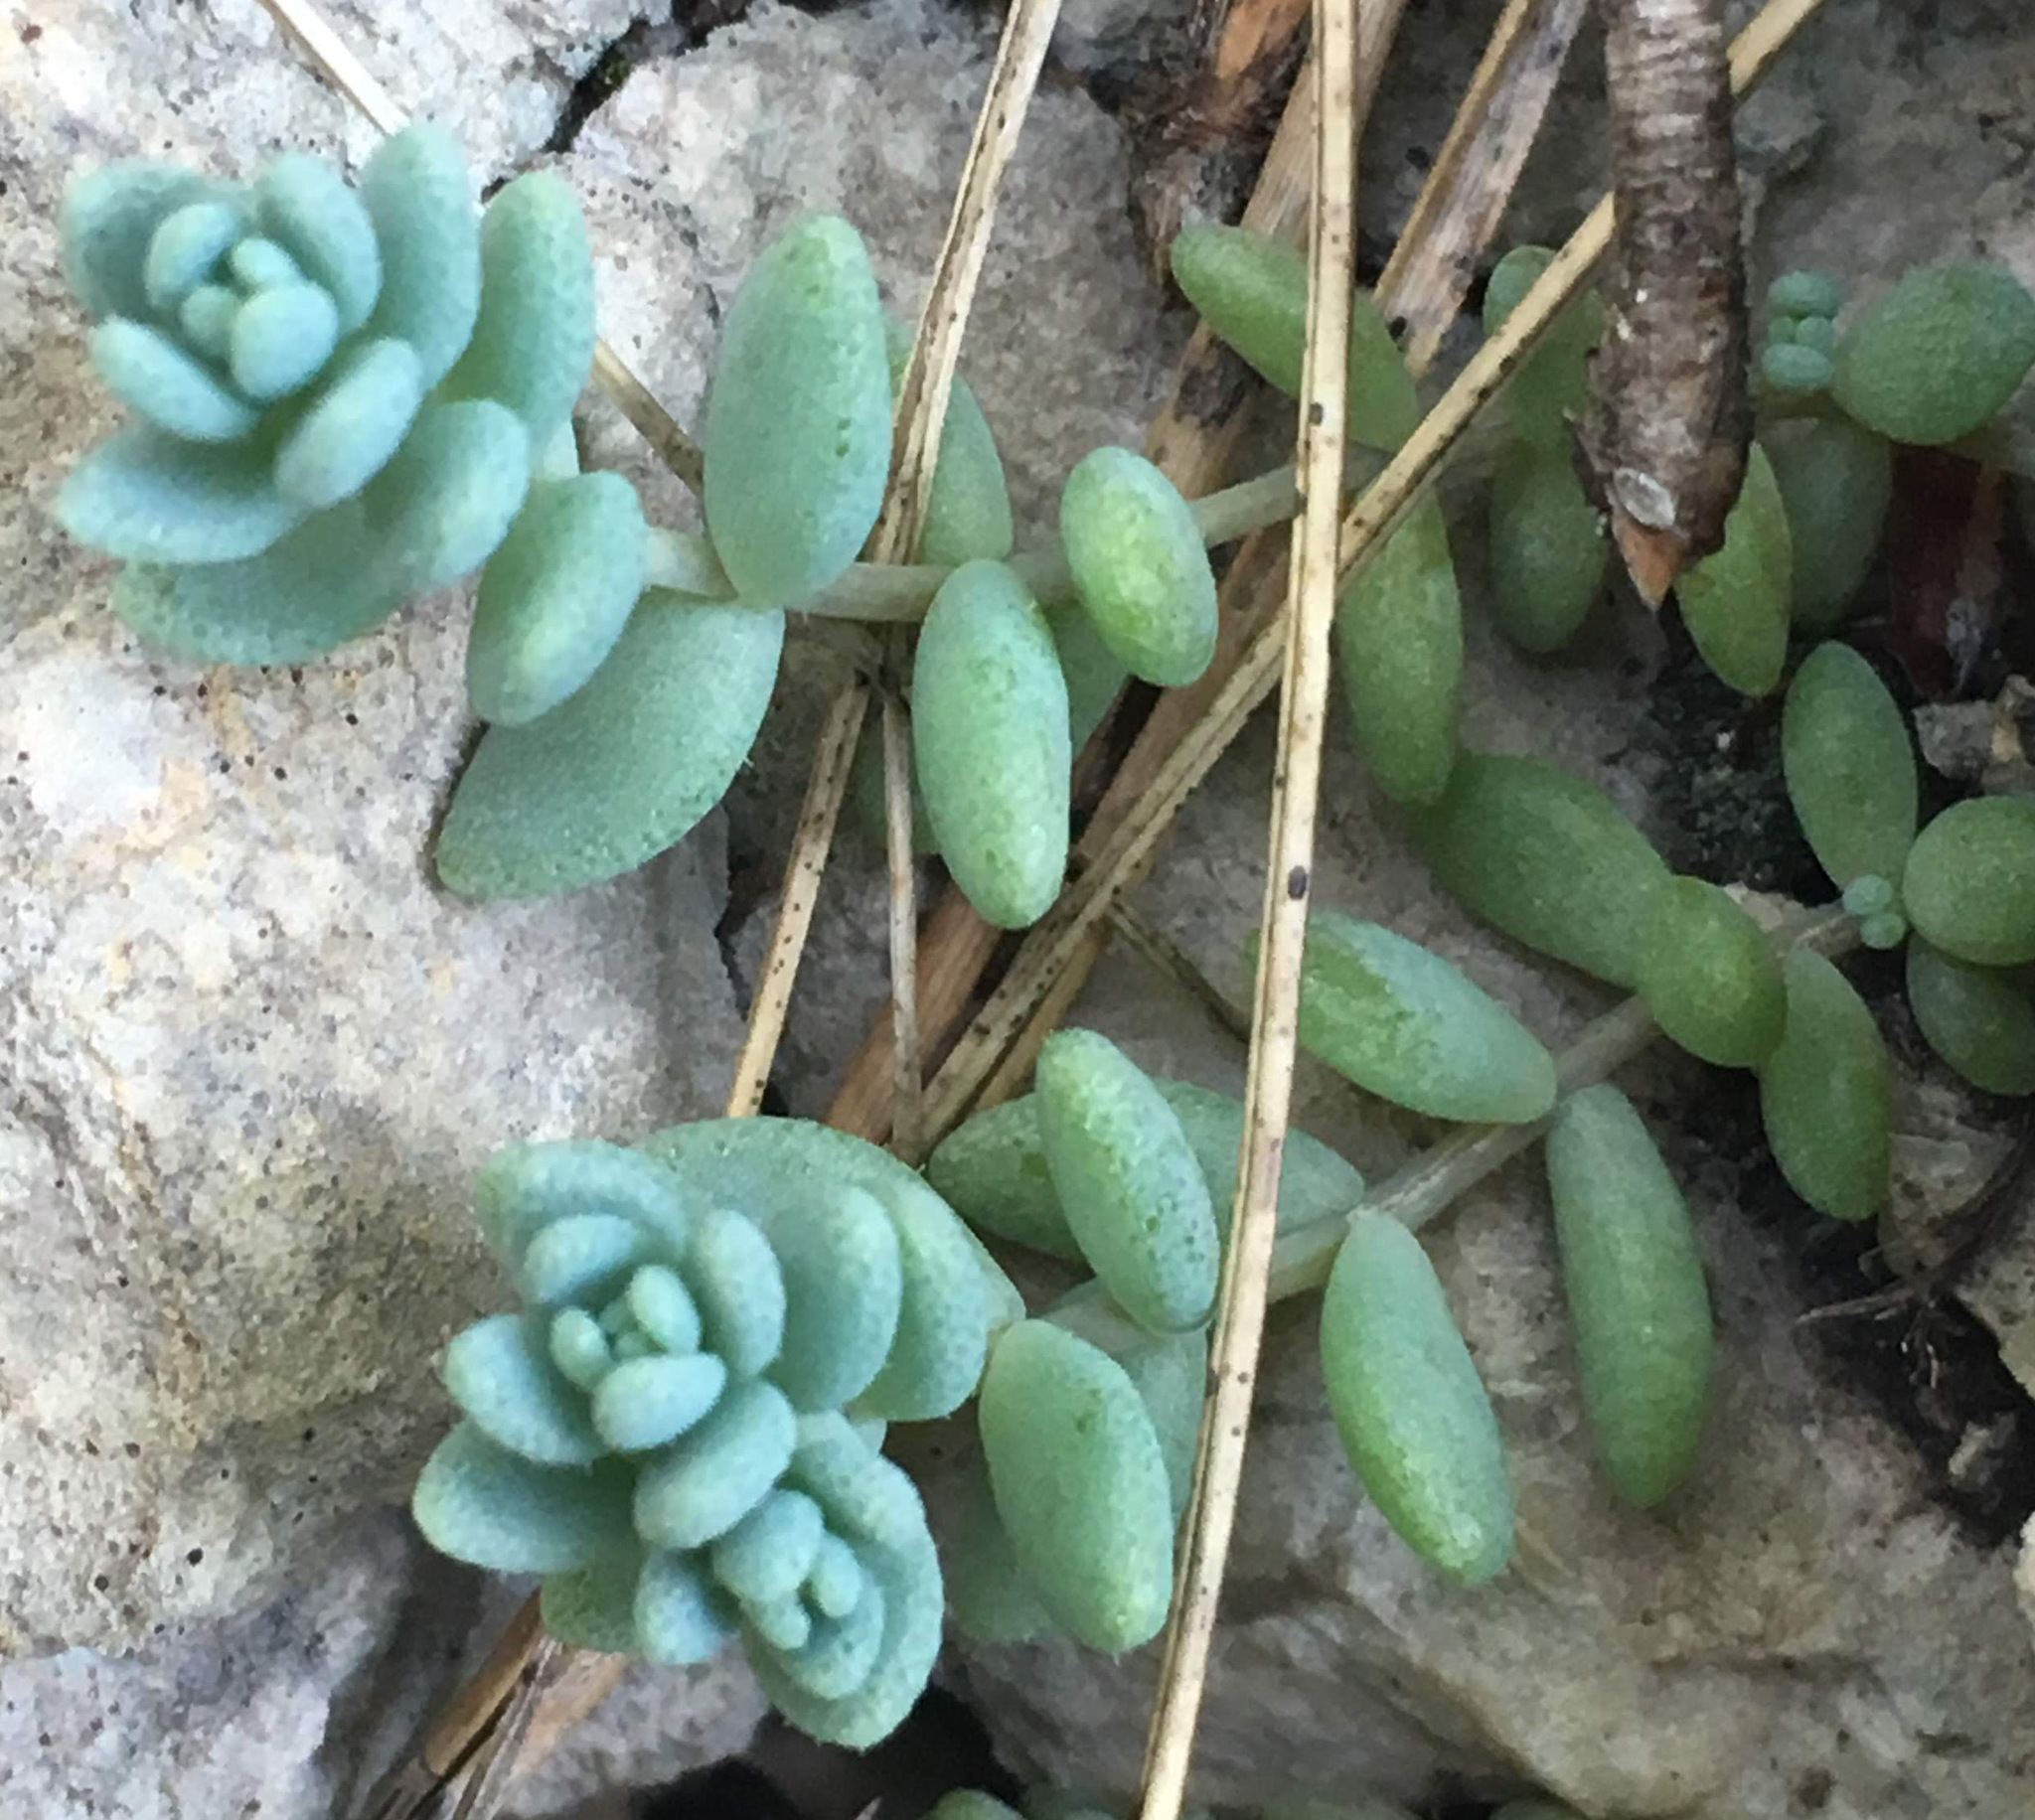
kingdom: Plantae
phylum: Tracheophyta
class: Magnoliopsida
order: Saxifragales
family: Crassulaceae
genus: Sedum
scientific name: Sedum dasyphyllum
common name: Thick-leaf stonecrop
